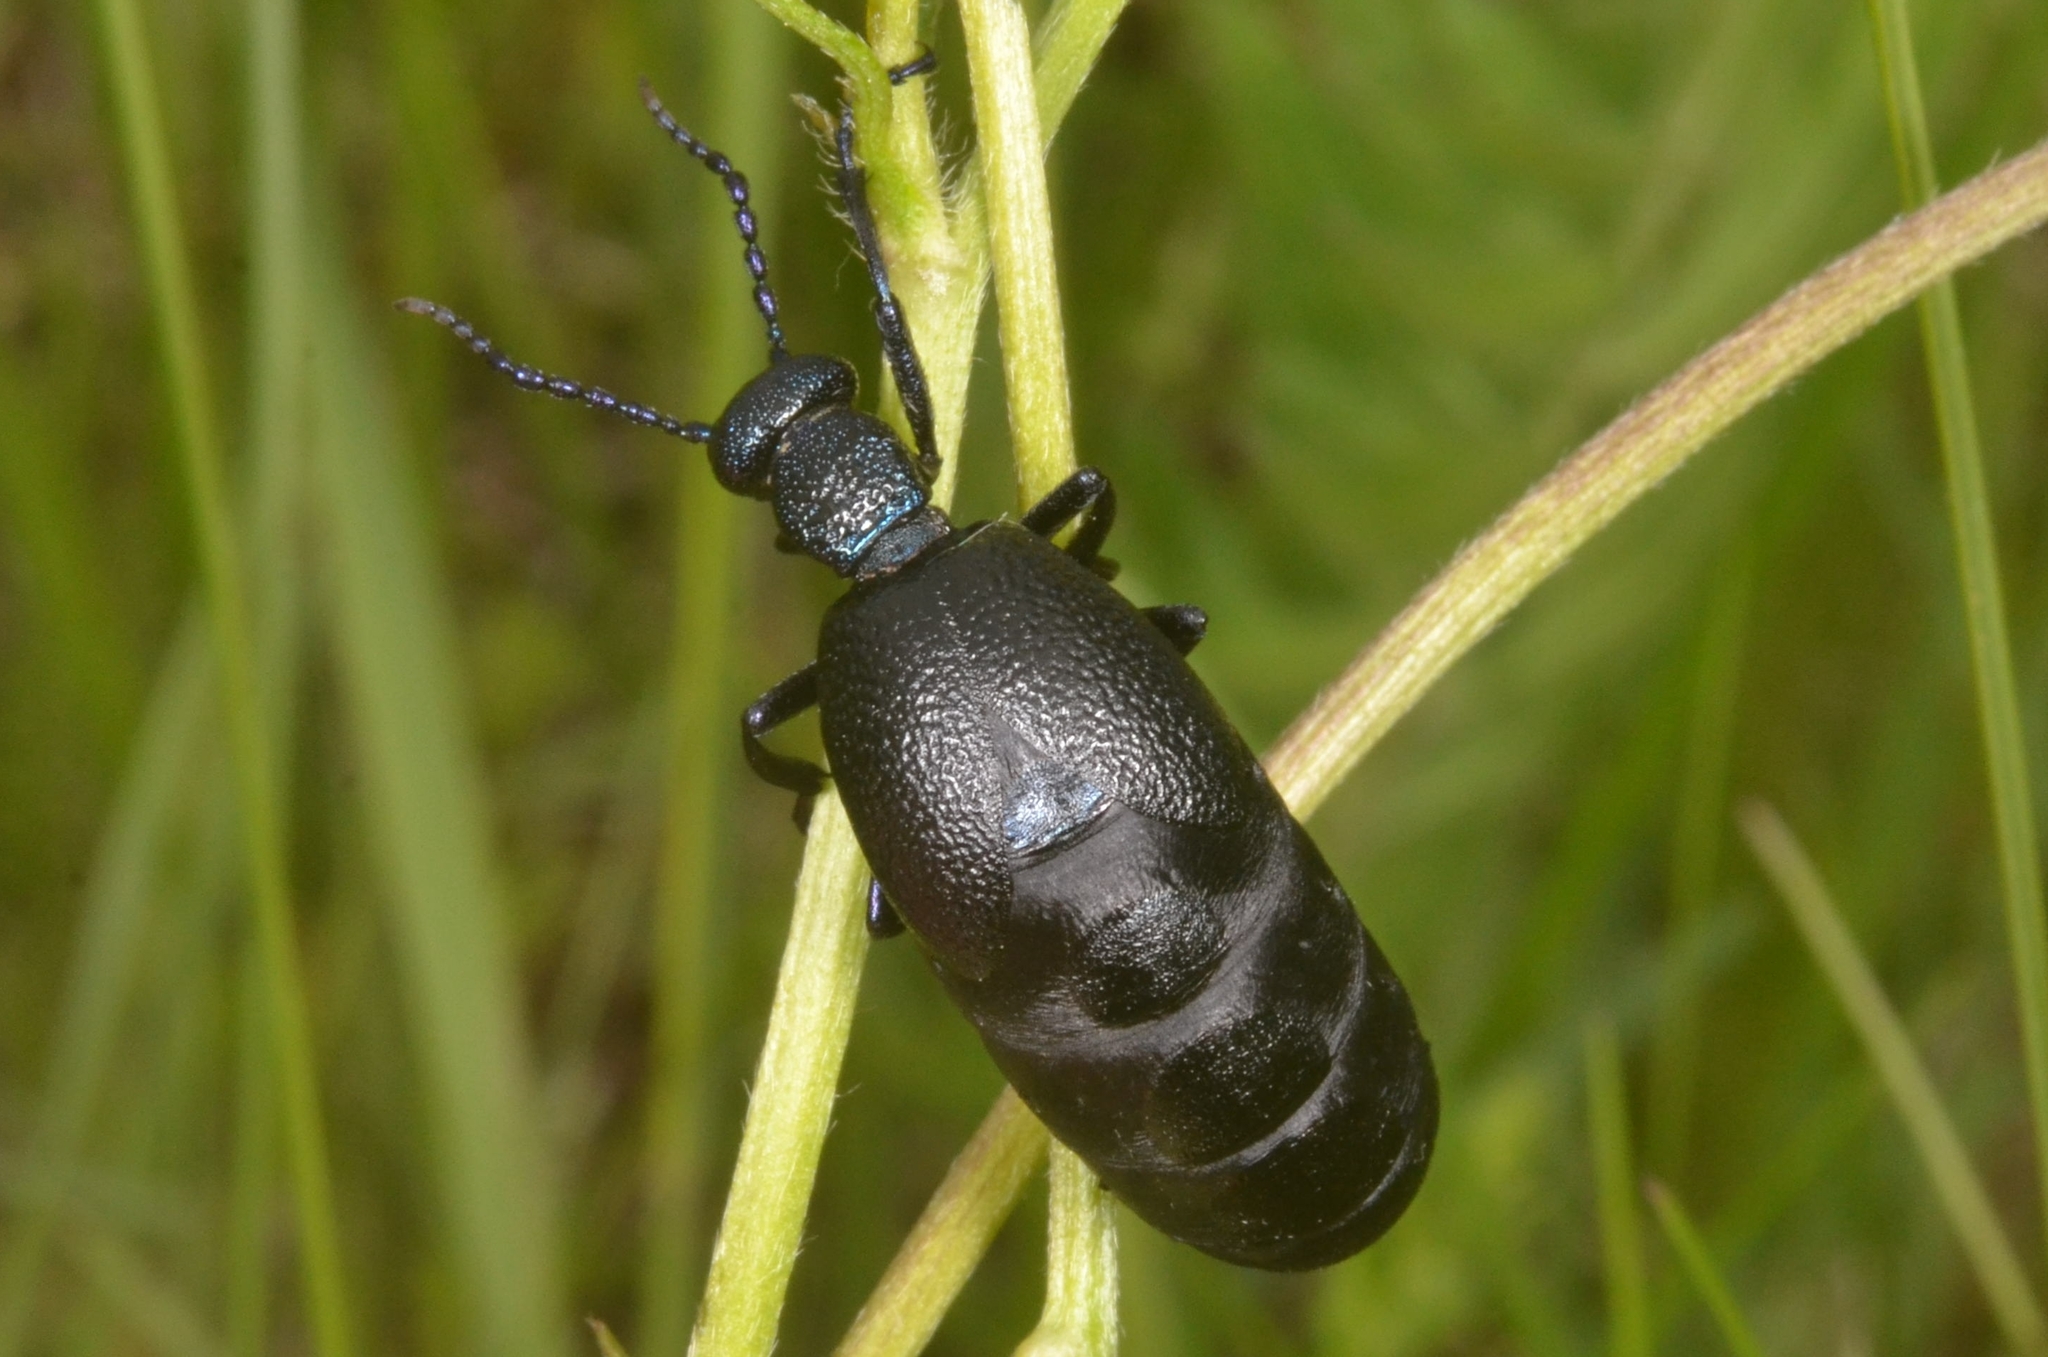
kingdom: Animalia
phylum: Arthropoda
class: Insecta
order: Coleoptera
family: Meloidae
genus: Meloe
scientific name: Meloe proscarabaeus
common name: Black oil-beetle
